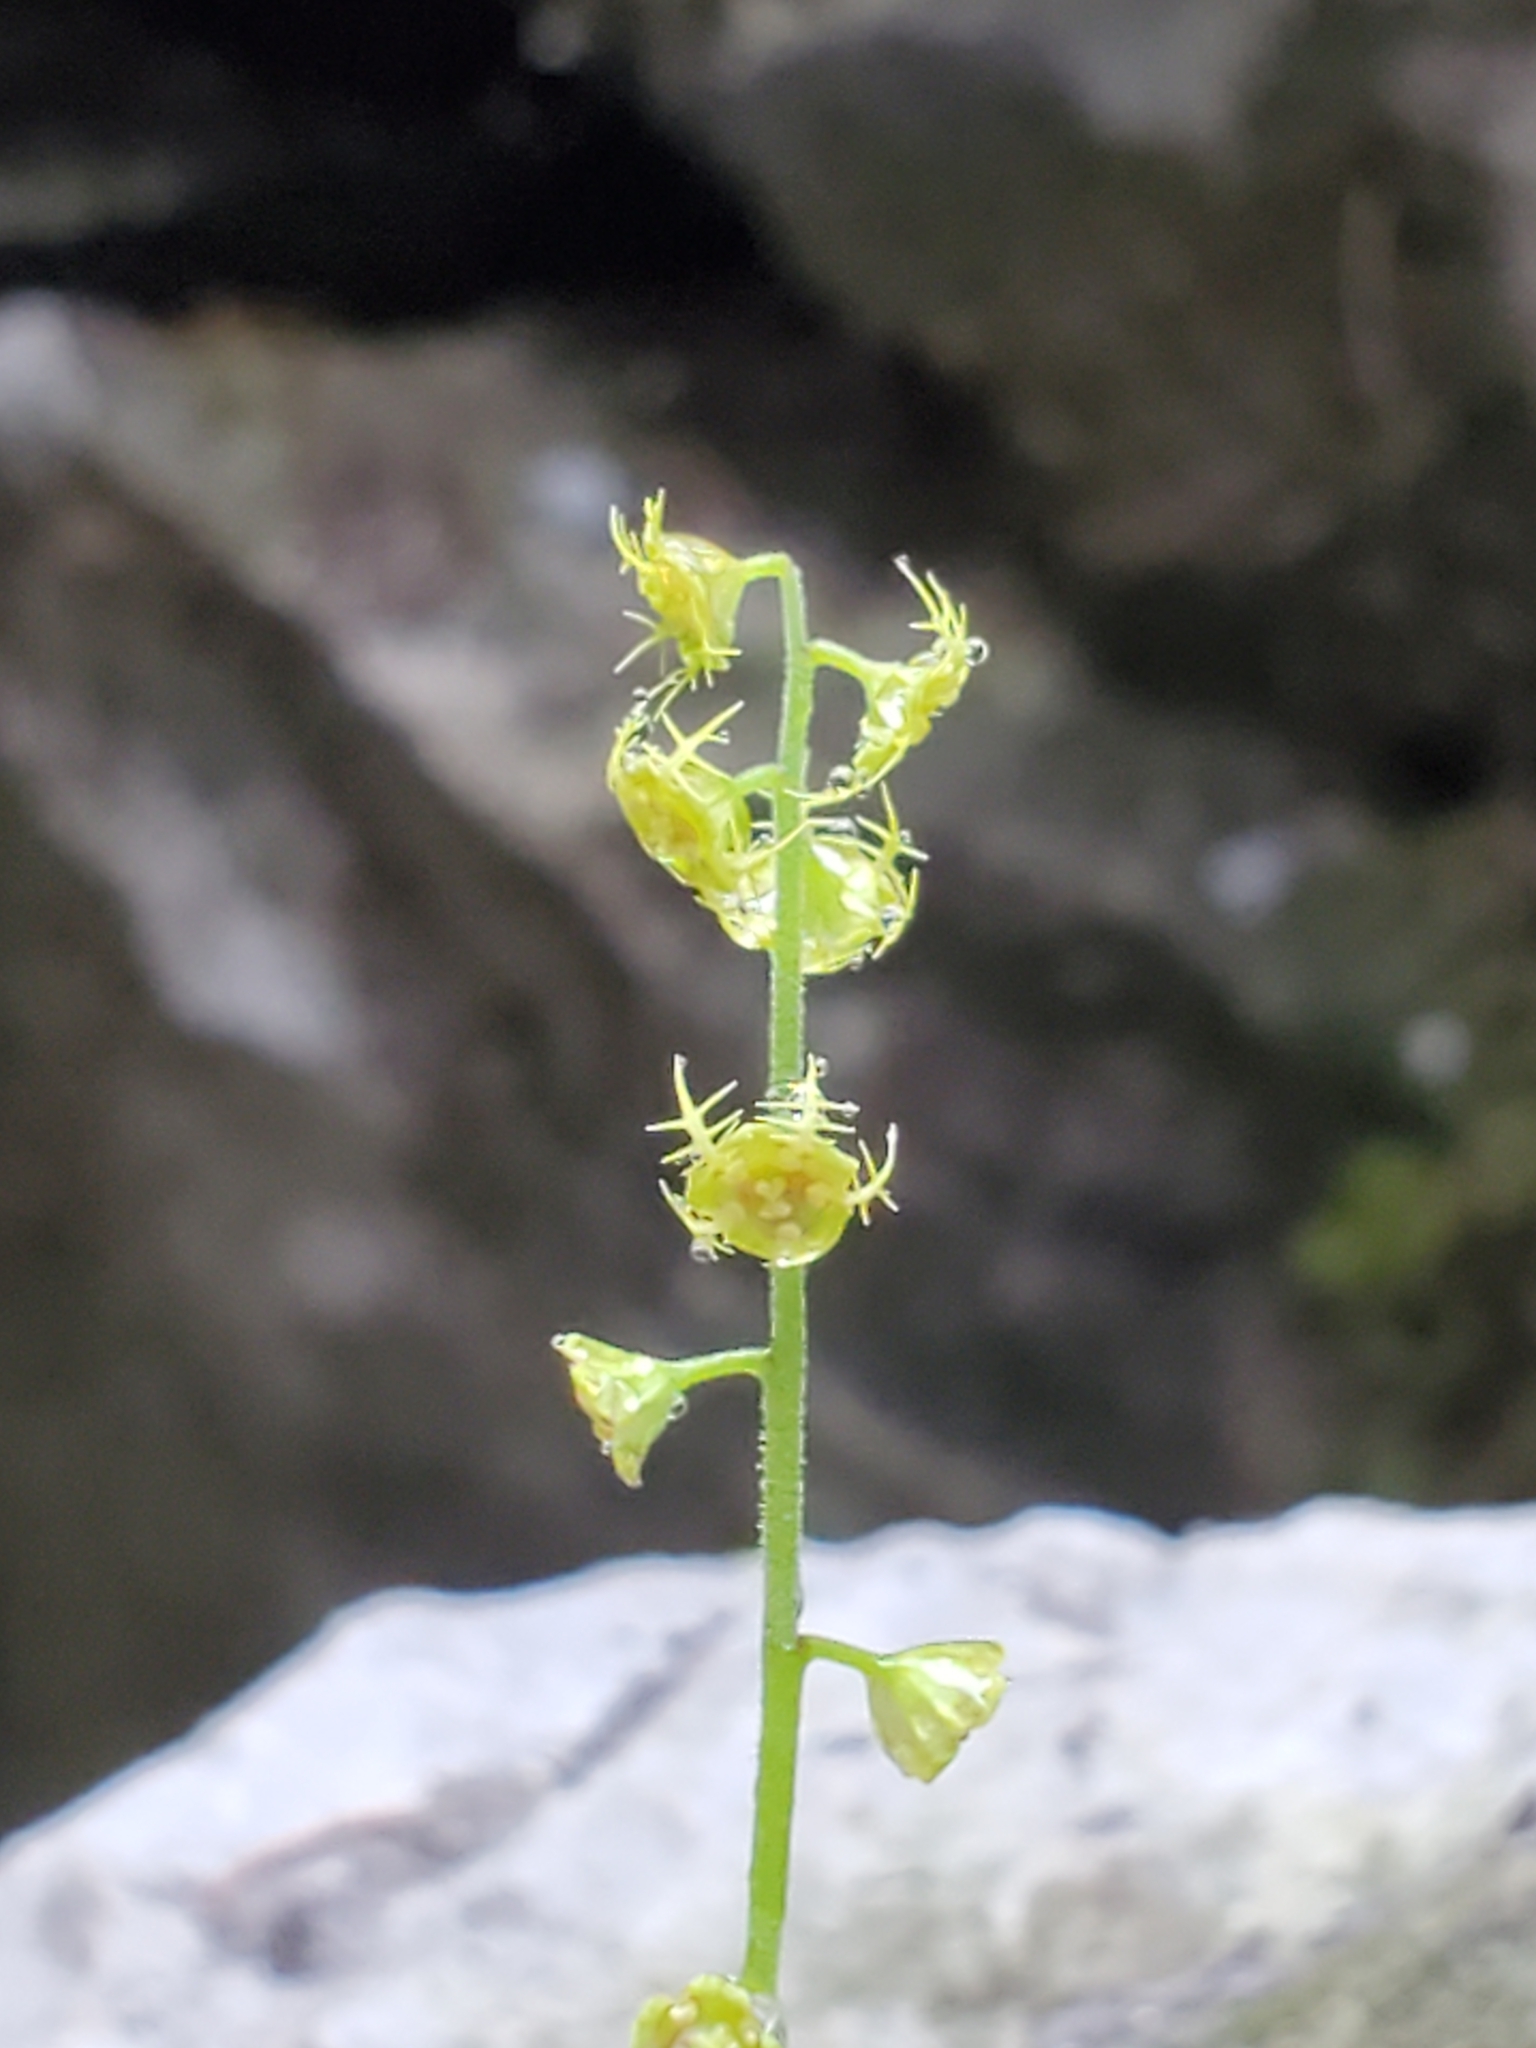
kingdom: Plantae
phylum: Tracheophyta
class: Magnoliopsida
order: Saxifragales
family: Saxifragaceae
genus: Pectiantia
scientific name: Pectiantia pentandra
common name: Alpine bishop's-cap
